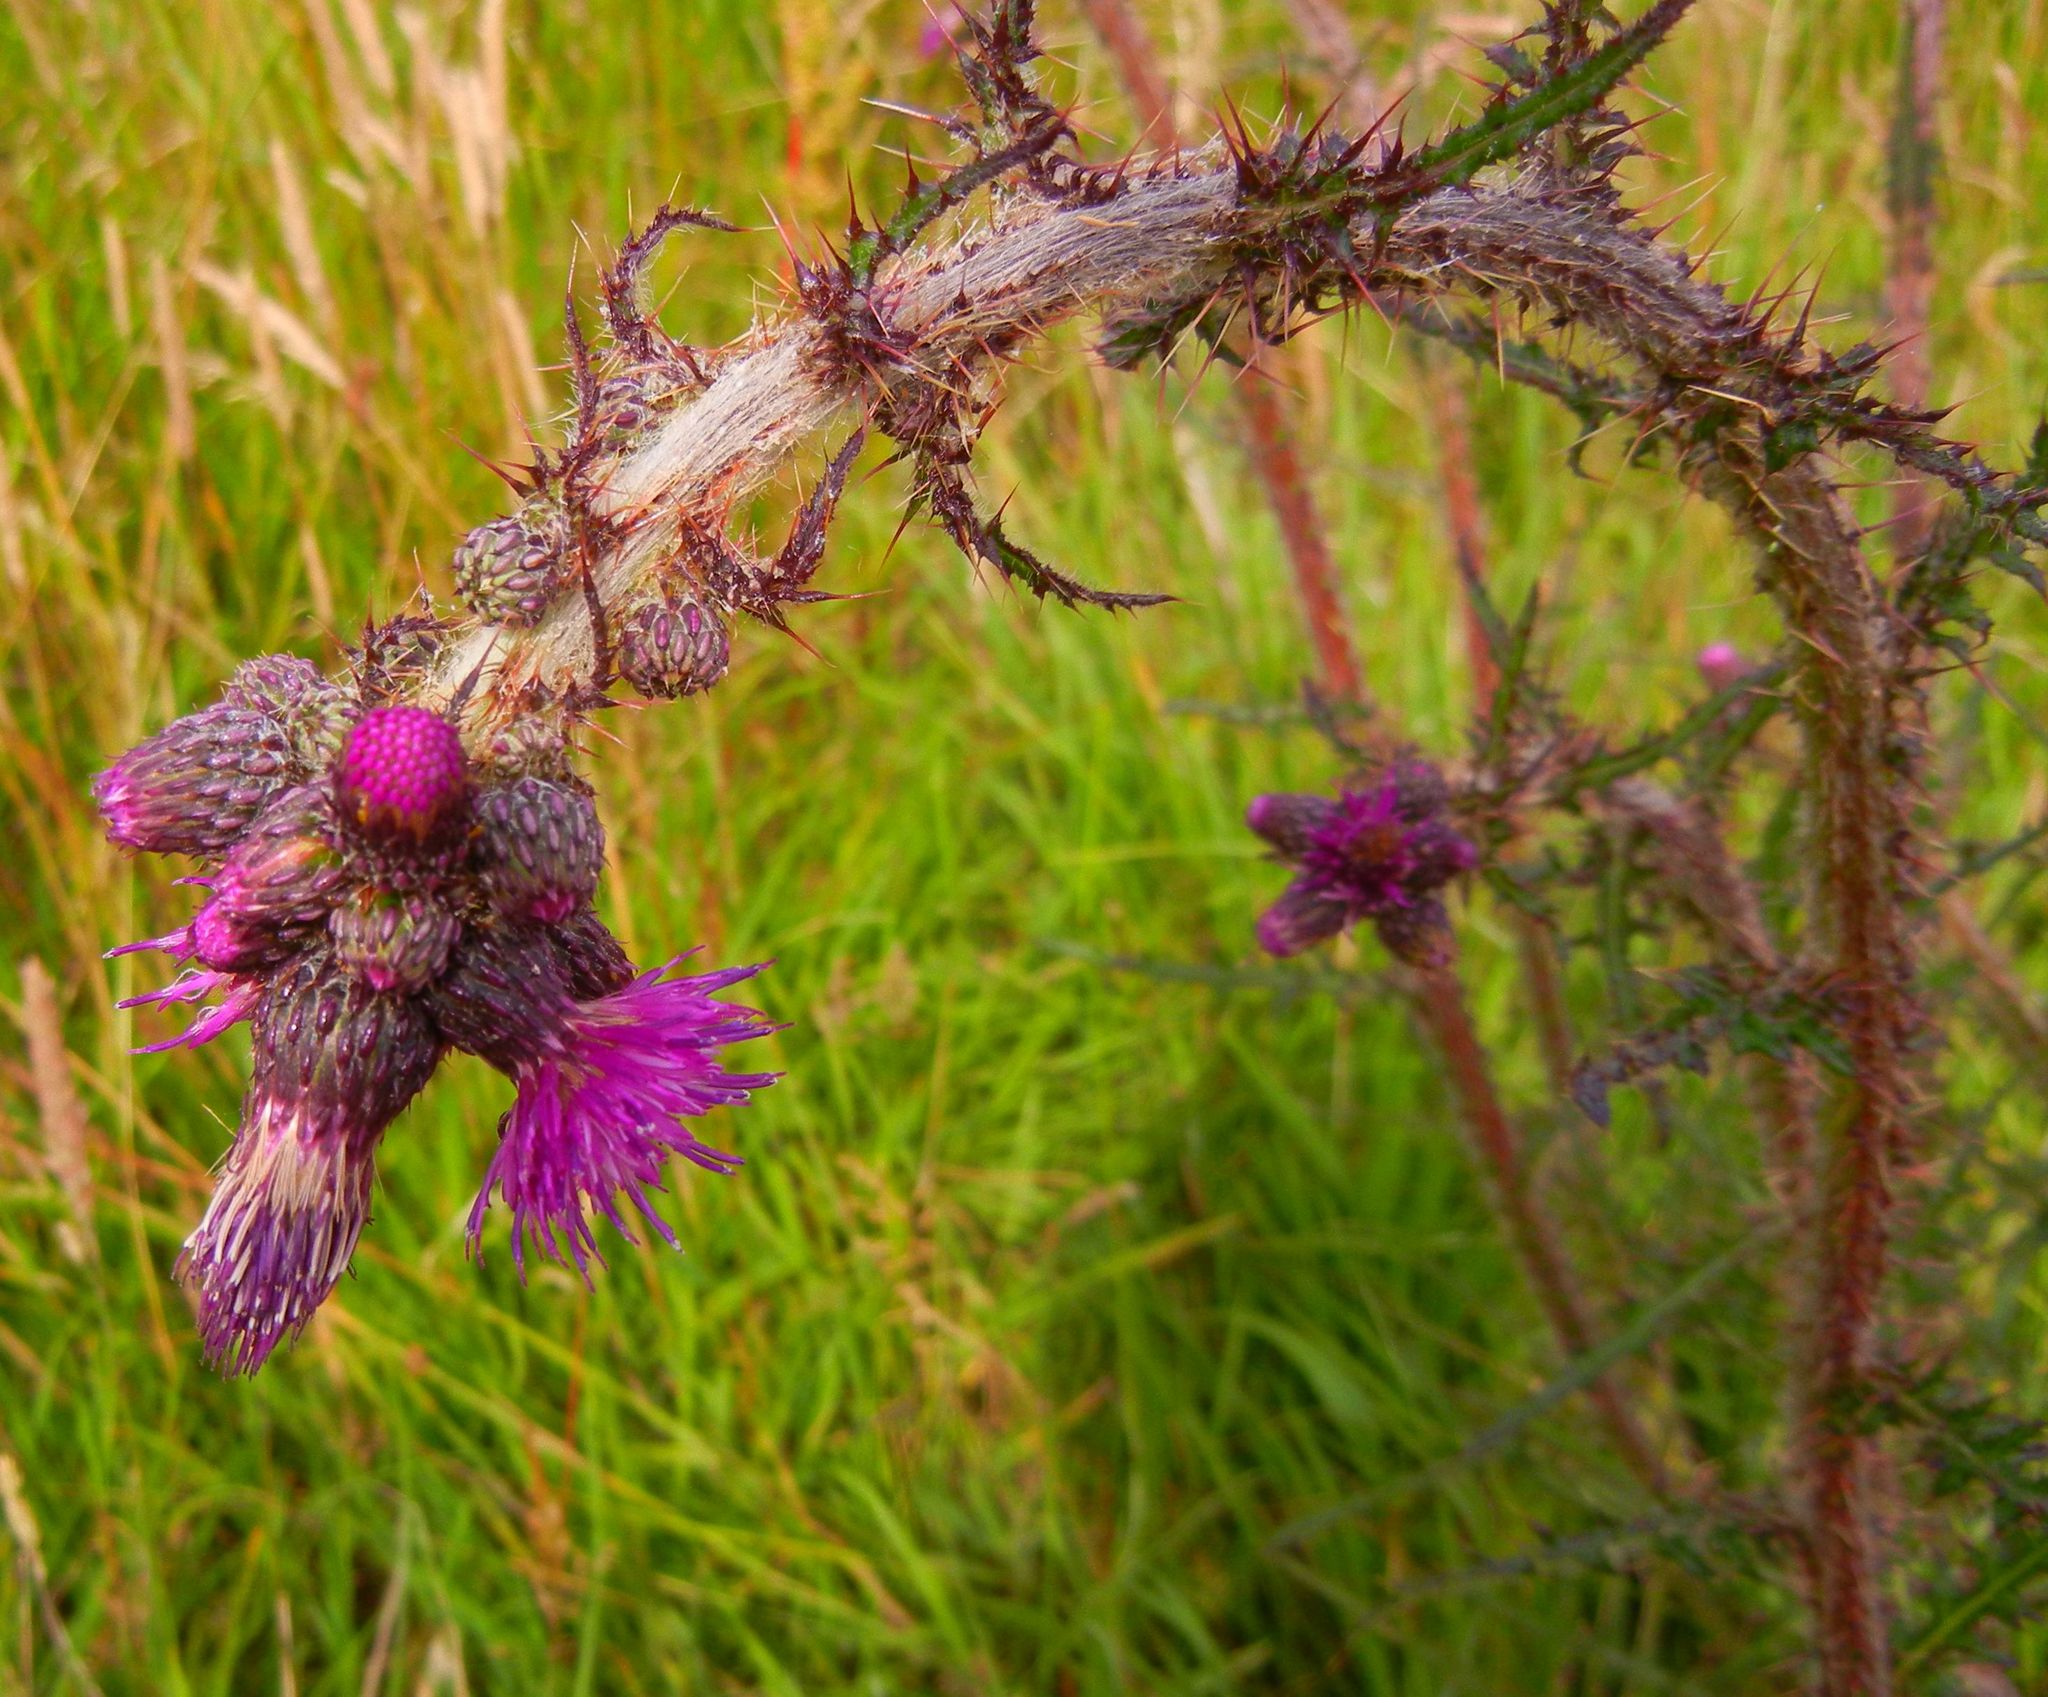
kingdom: Plantae
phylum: Tracheophyta
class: Magnoliopsida
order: Asterales
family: Asteraceae
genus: Cirsium
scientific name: Cirsium palustre
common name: Marsh thistle
